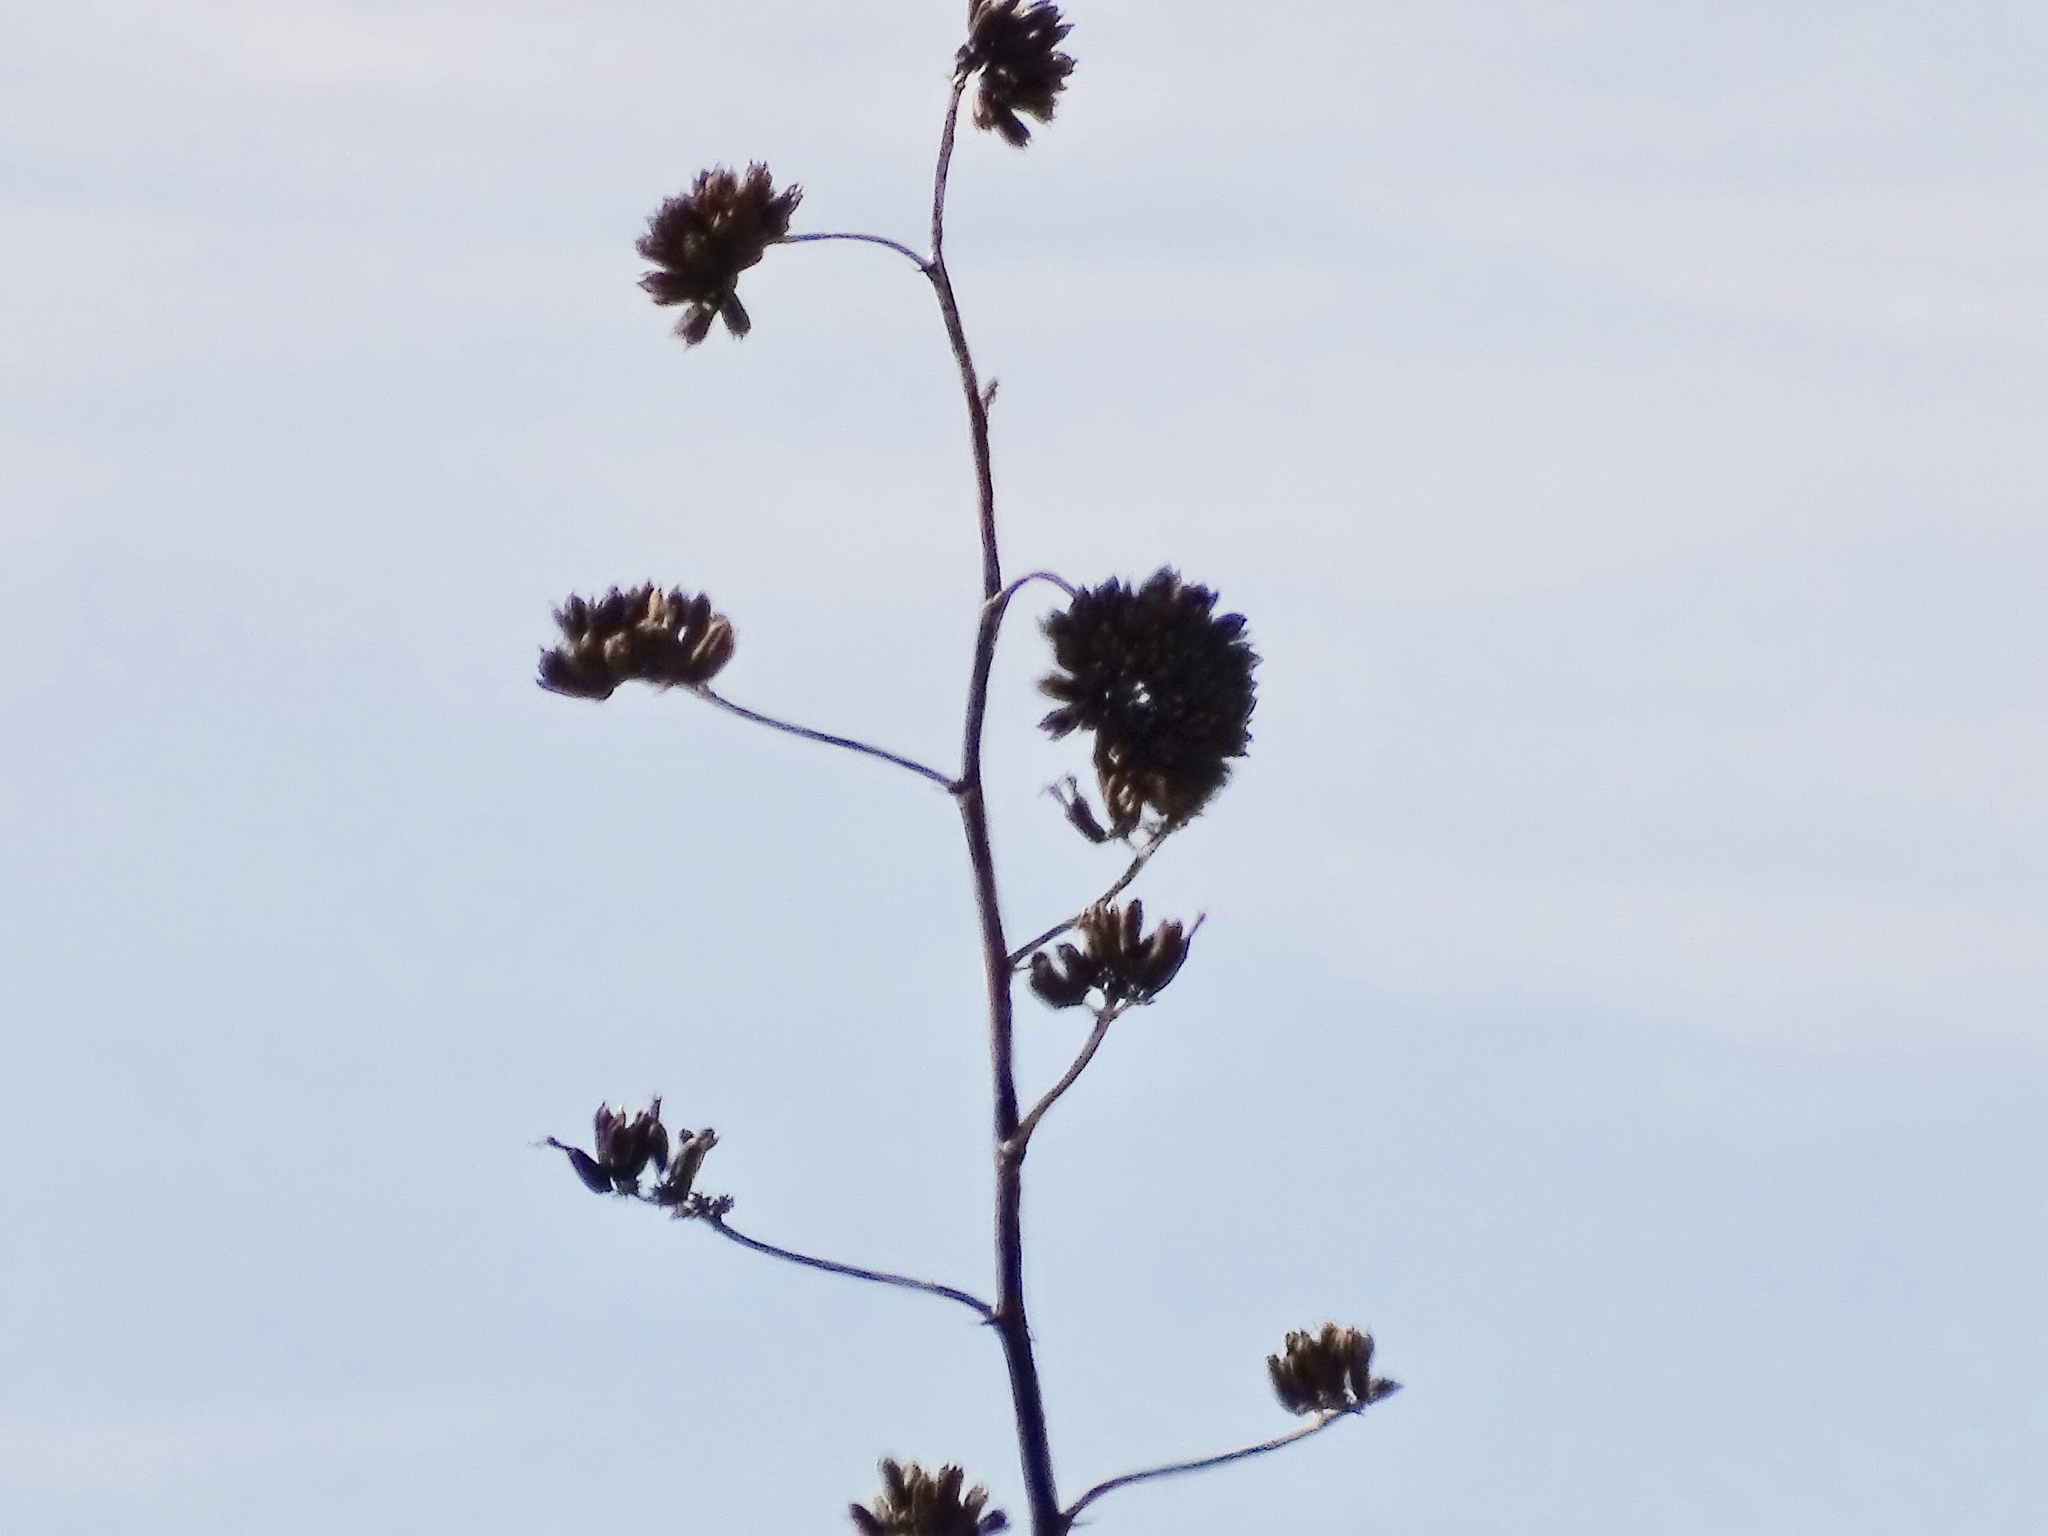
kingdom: Plantae
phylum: Tracheophyta
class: Liliopsida
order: Asparagales
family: Asparagaceae
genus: Agave
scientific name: Agave palmeri
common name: Palmer agave
